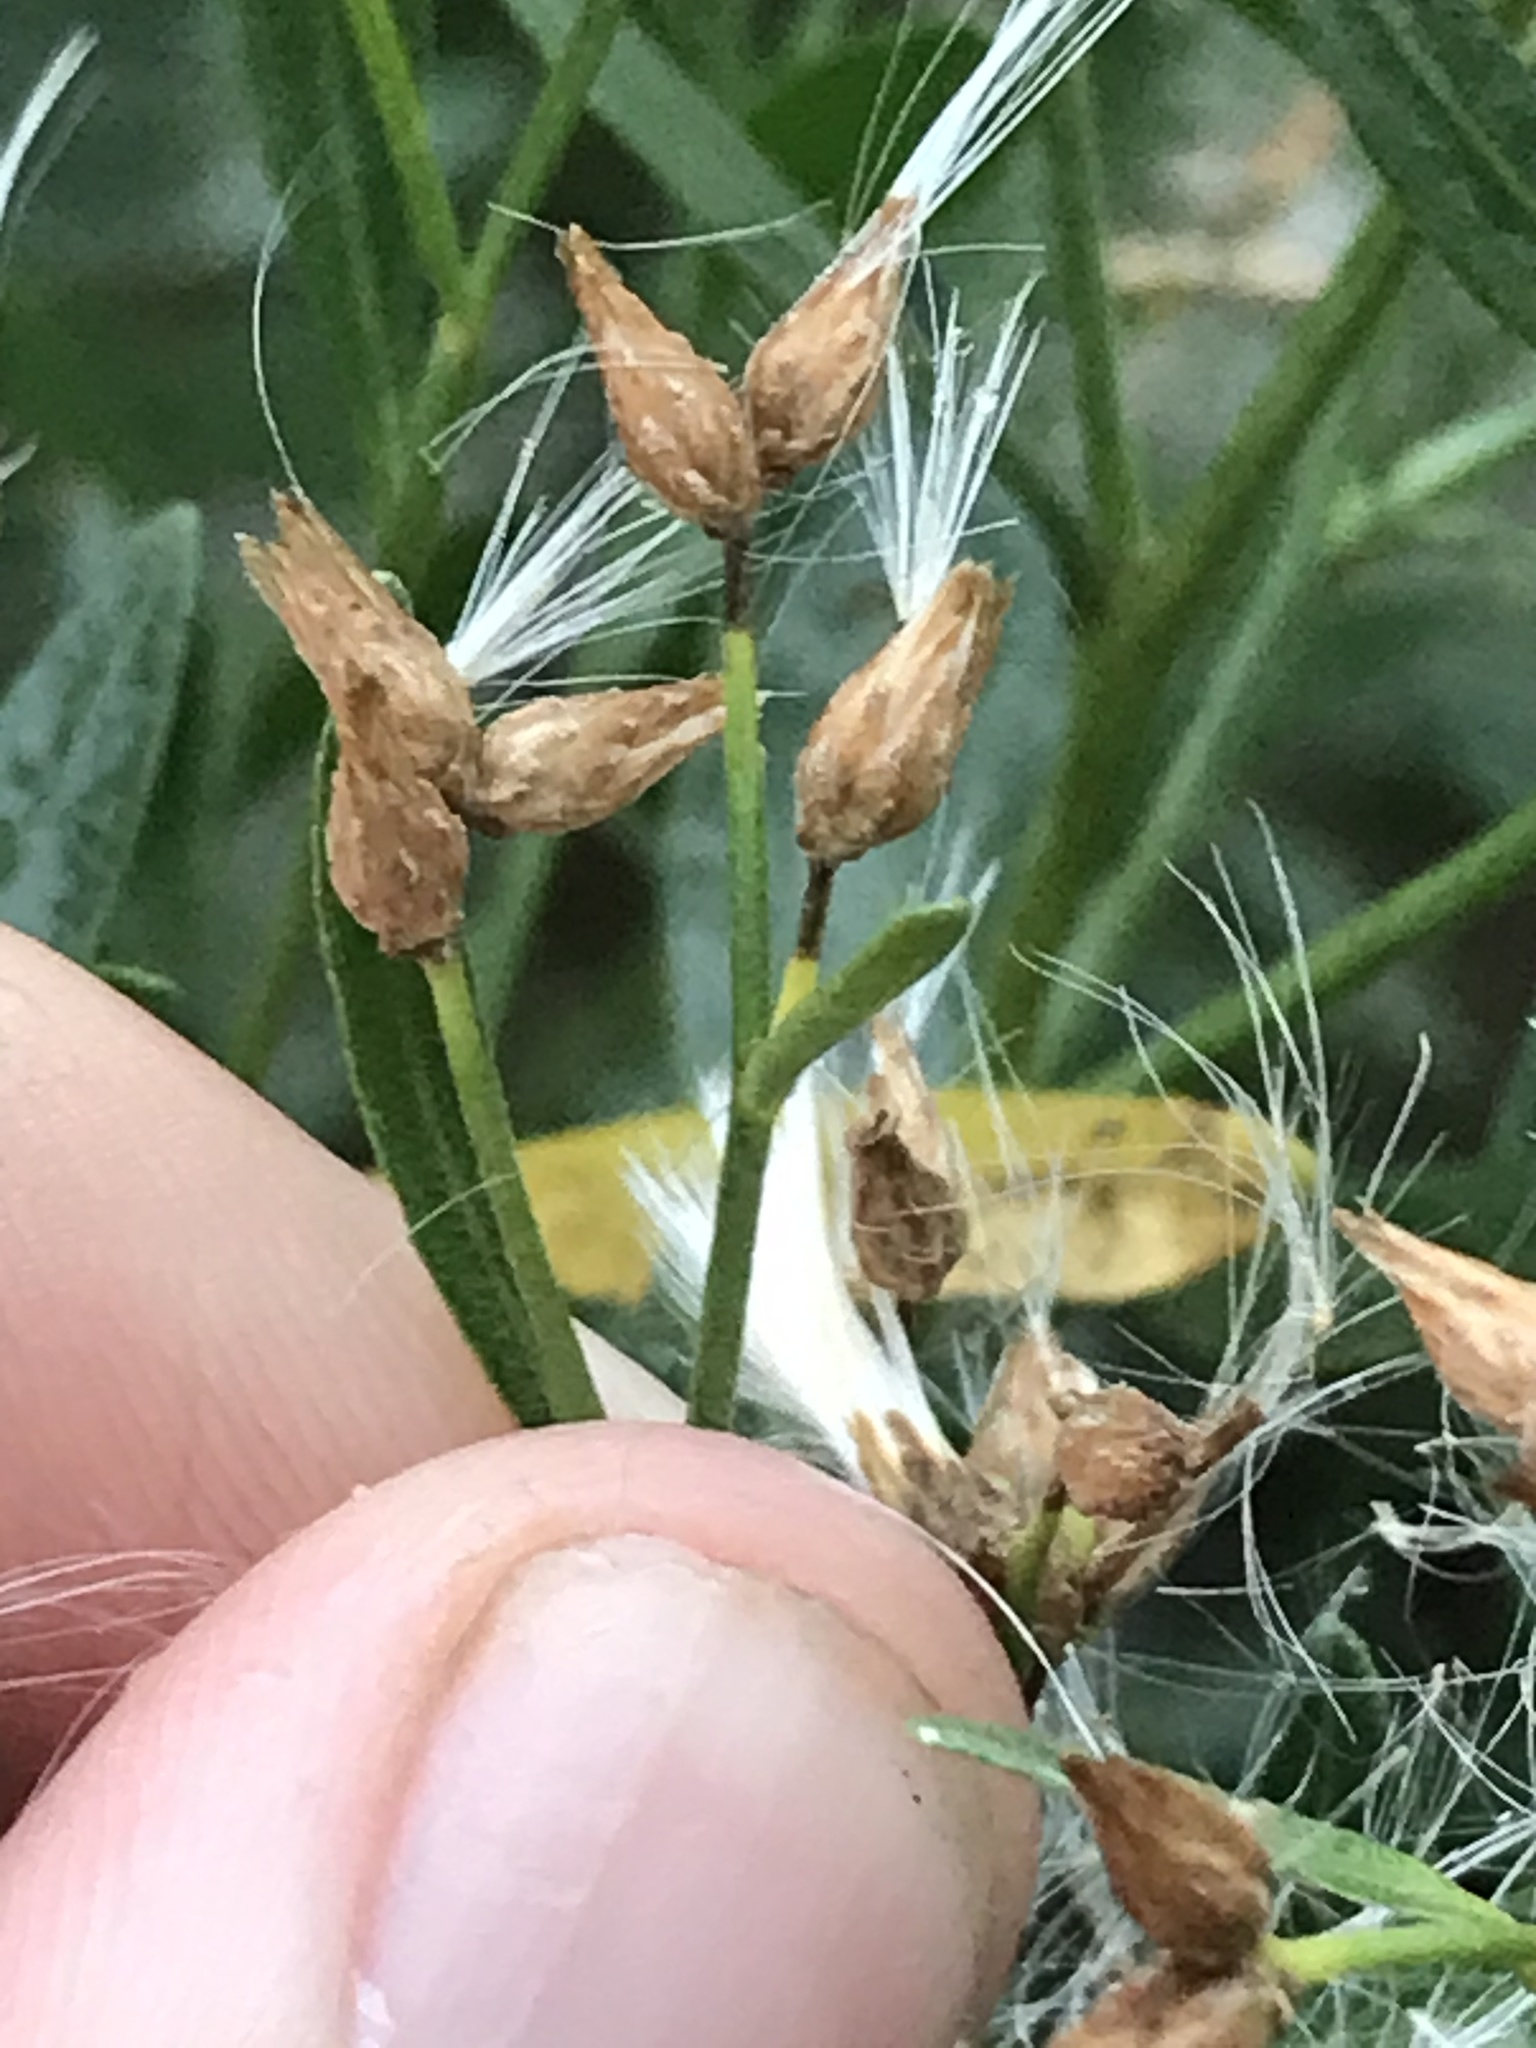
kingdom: Plantae
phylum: Tracheophyta
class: Magnoliopsida
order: Asterales
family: Asteraceae
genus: Baccharis
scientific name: Baccharis halimifolia
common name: Eastern baccharis
